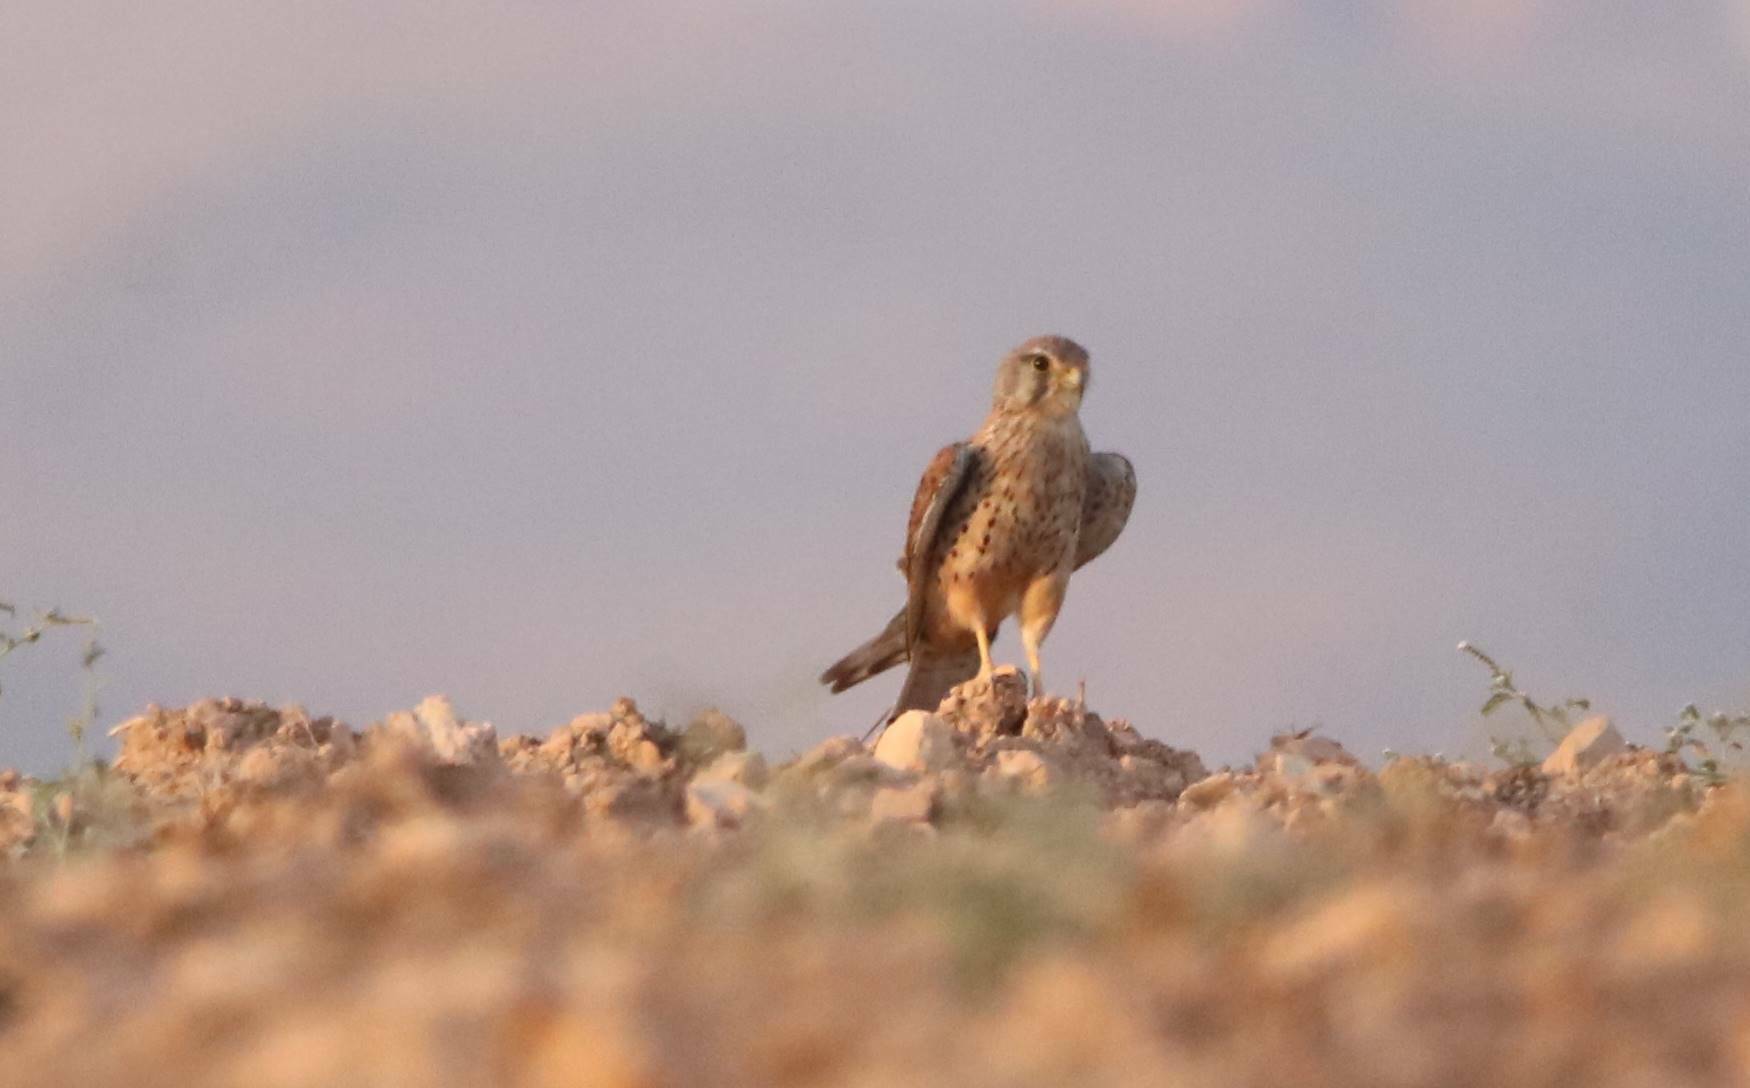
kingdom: Animalia
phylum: Chordata
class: Aves
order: Falconiformes
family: Falconidae
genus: Falco
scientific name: Falco tinnunculus
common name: Common kestrel
